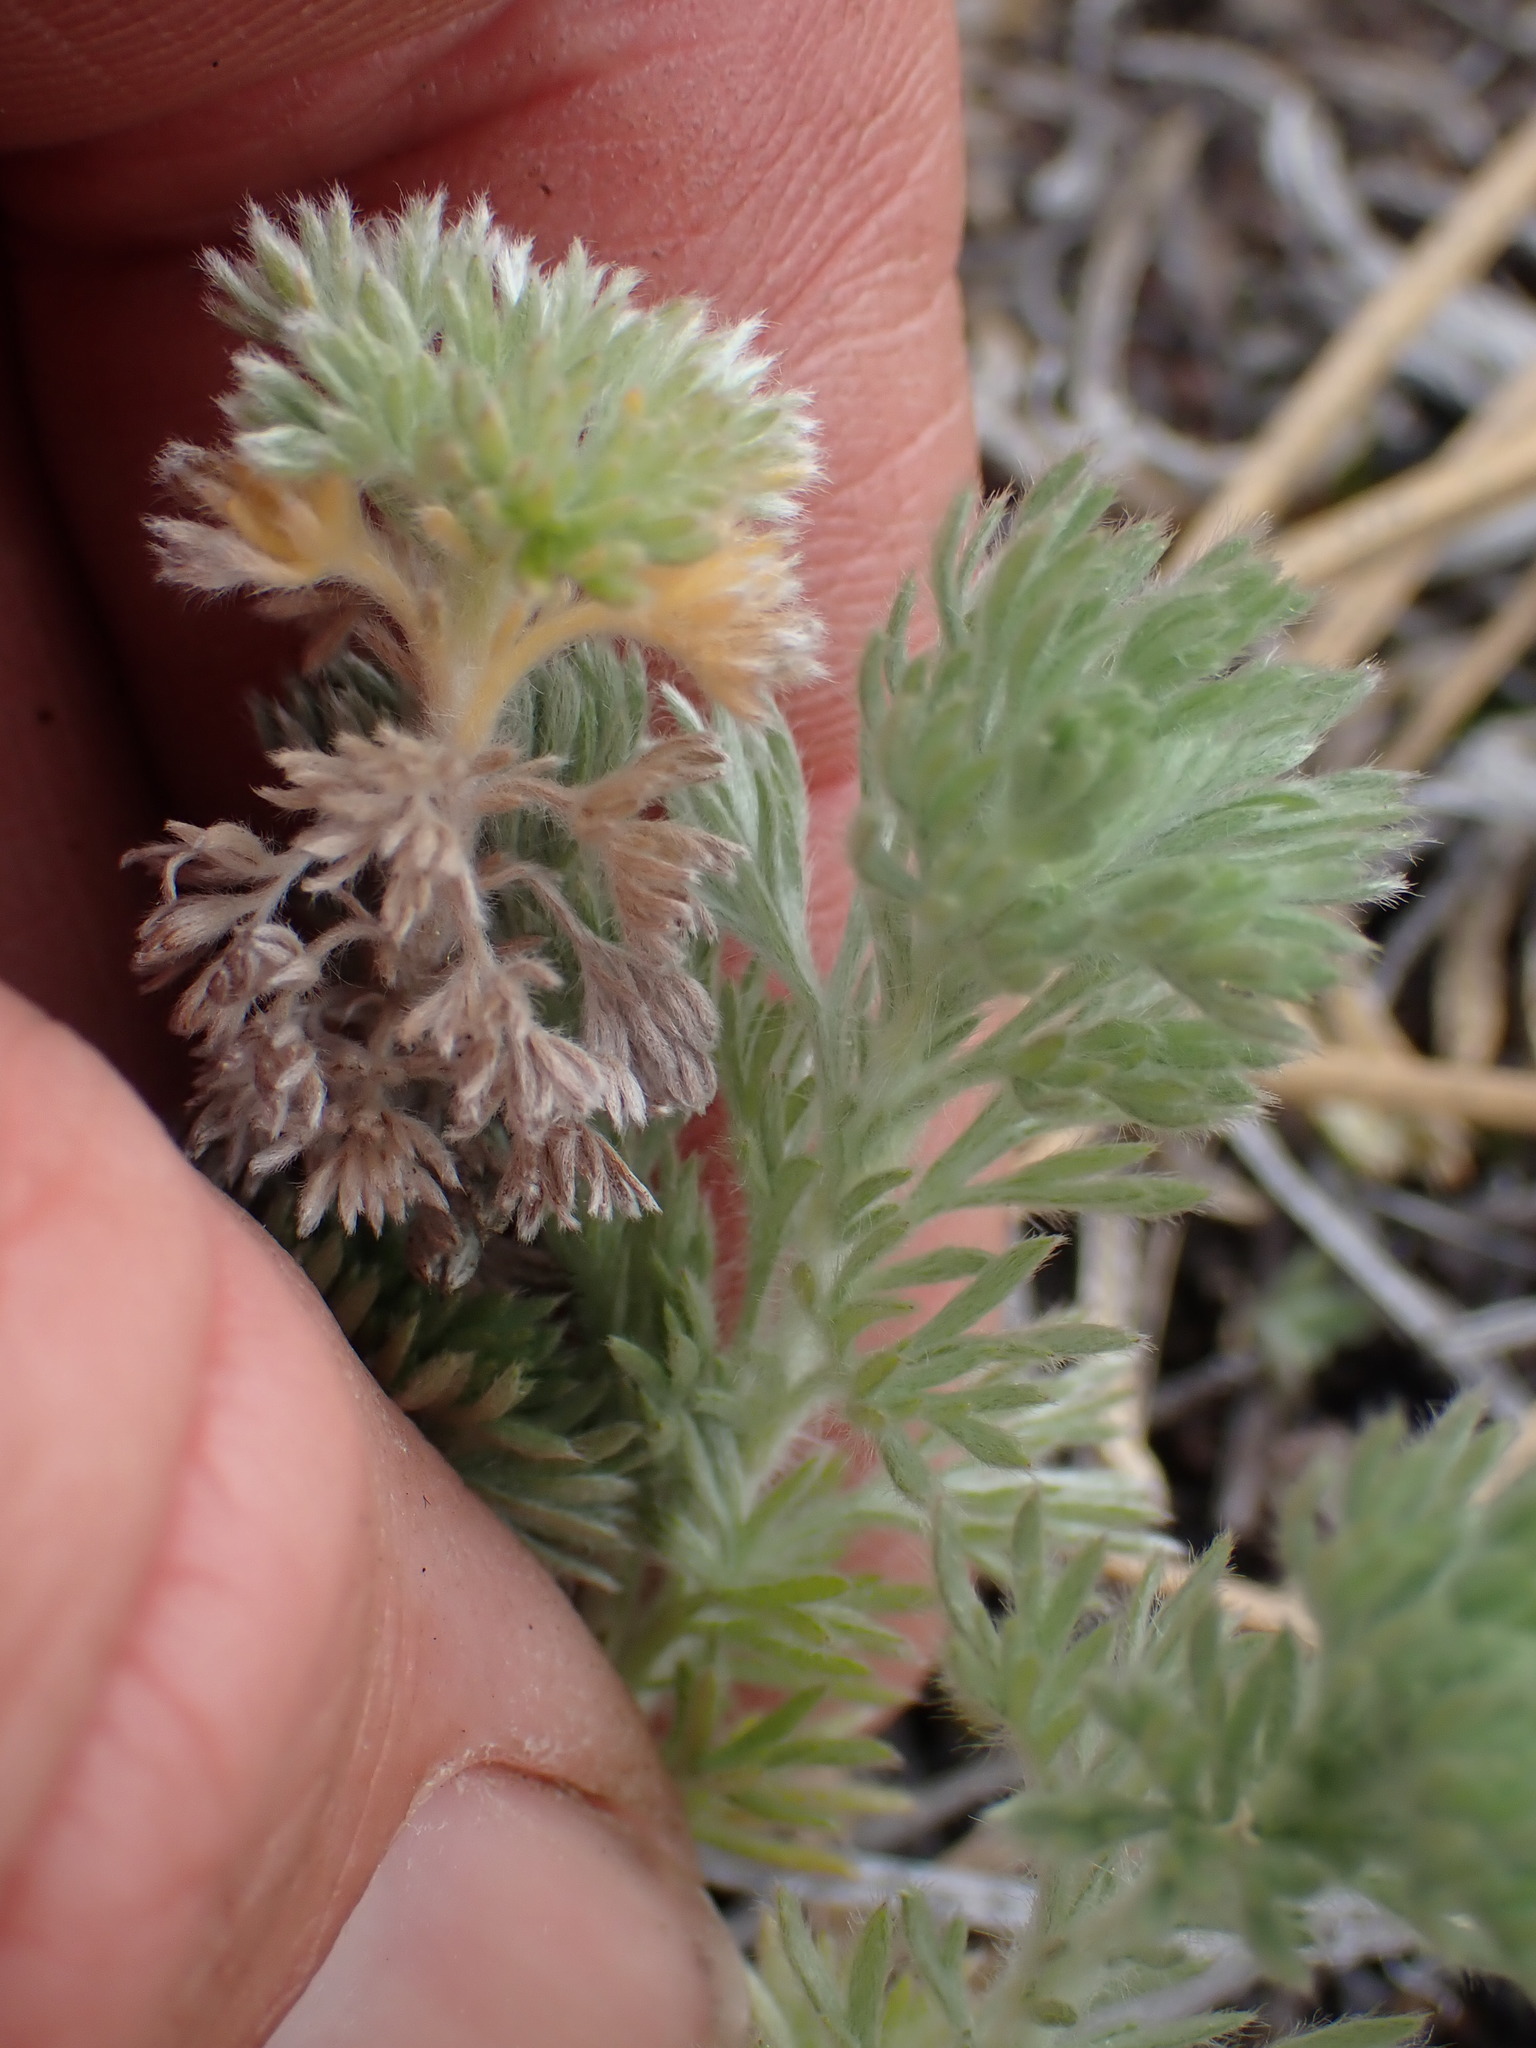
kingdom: Plantae
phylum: Tracheophyta
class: Magnoliopsida
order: Asterales
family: Asteraceae
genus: Artemisia
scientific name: Artemisia frigida
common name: Prairie sagewort
